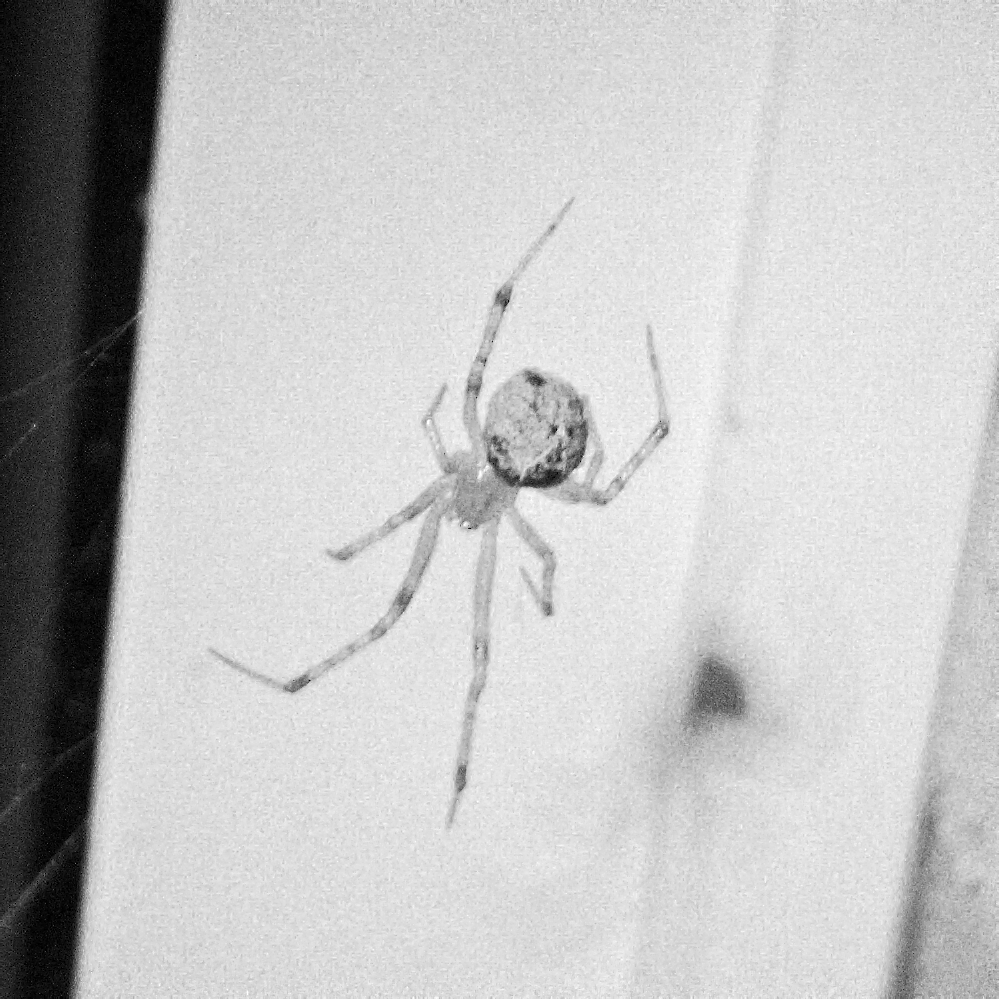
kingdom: Animalia
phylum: Arthropoda
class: Arachnida
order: Araneae
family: Theridiidae
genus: Cryptachaea
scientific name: Cryptachaea veruculata
